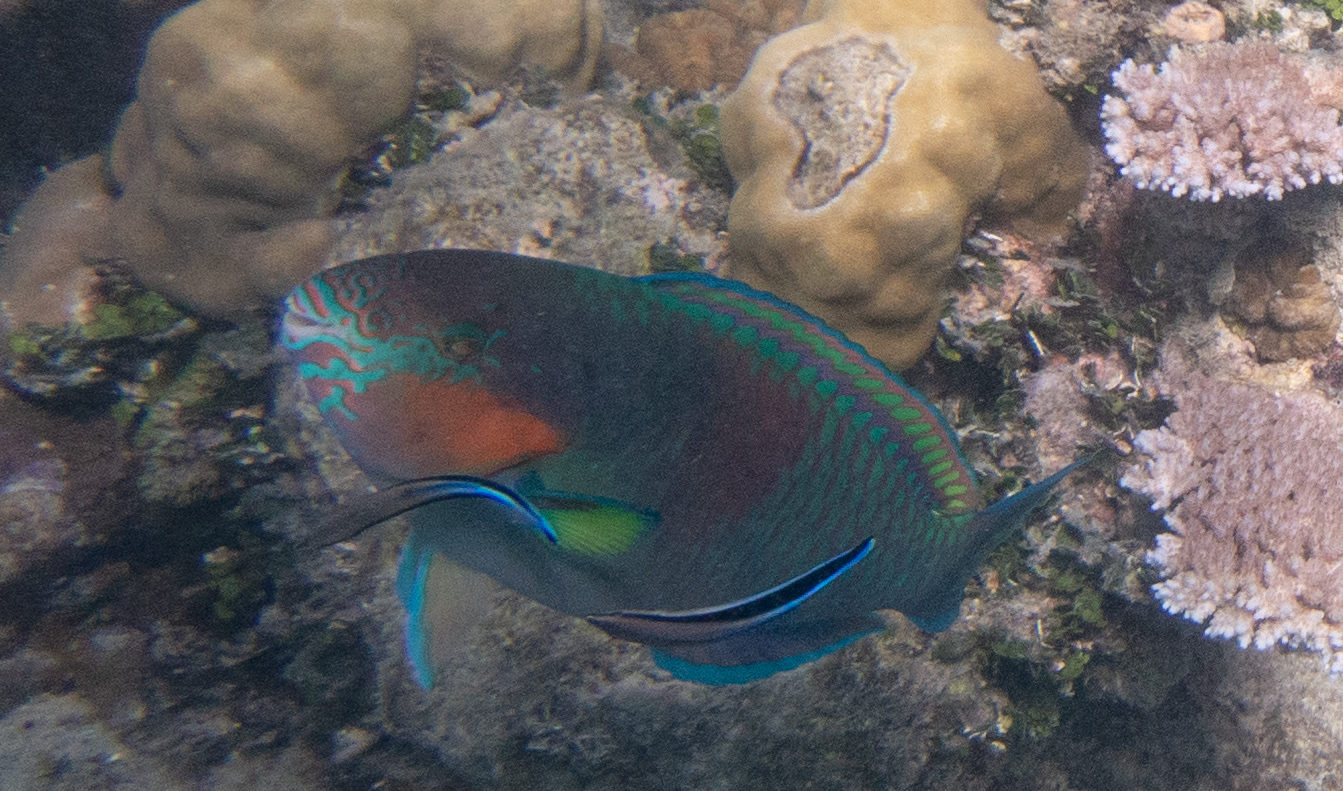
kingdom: Animalia
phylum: Chordata
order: Perciformes
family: Scaridae
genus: Scarus
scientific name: Scarus rivulatus
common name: Surf parrotfish
